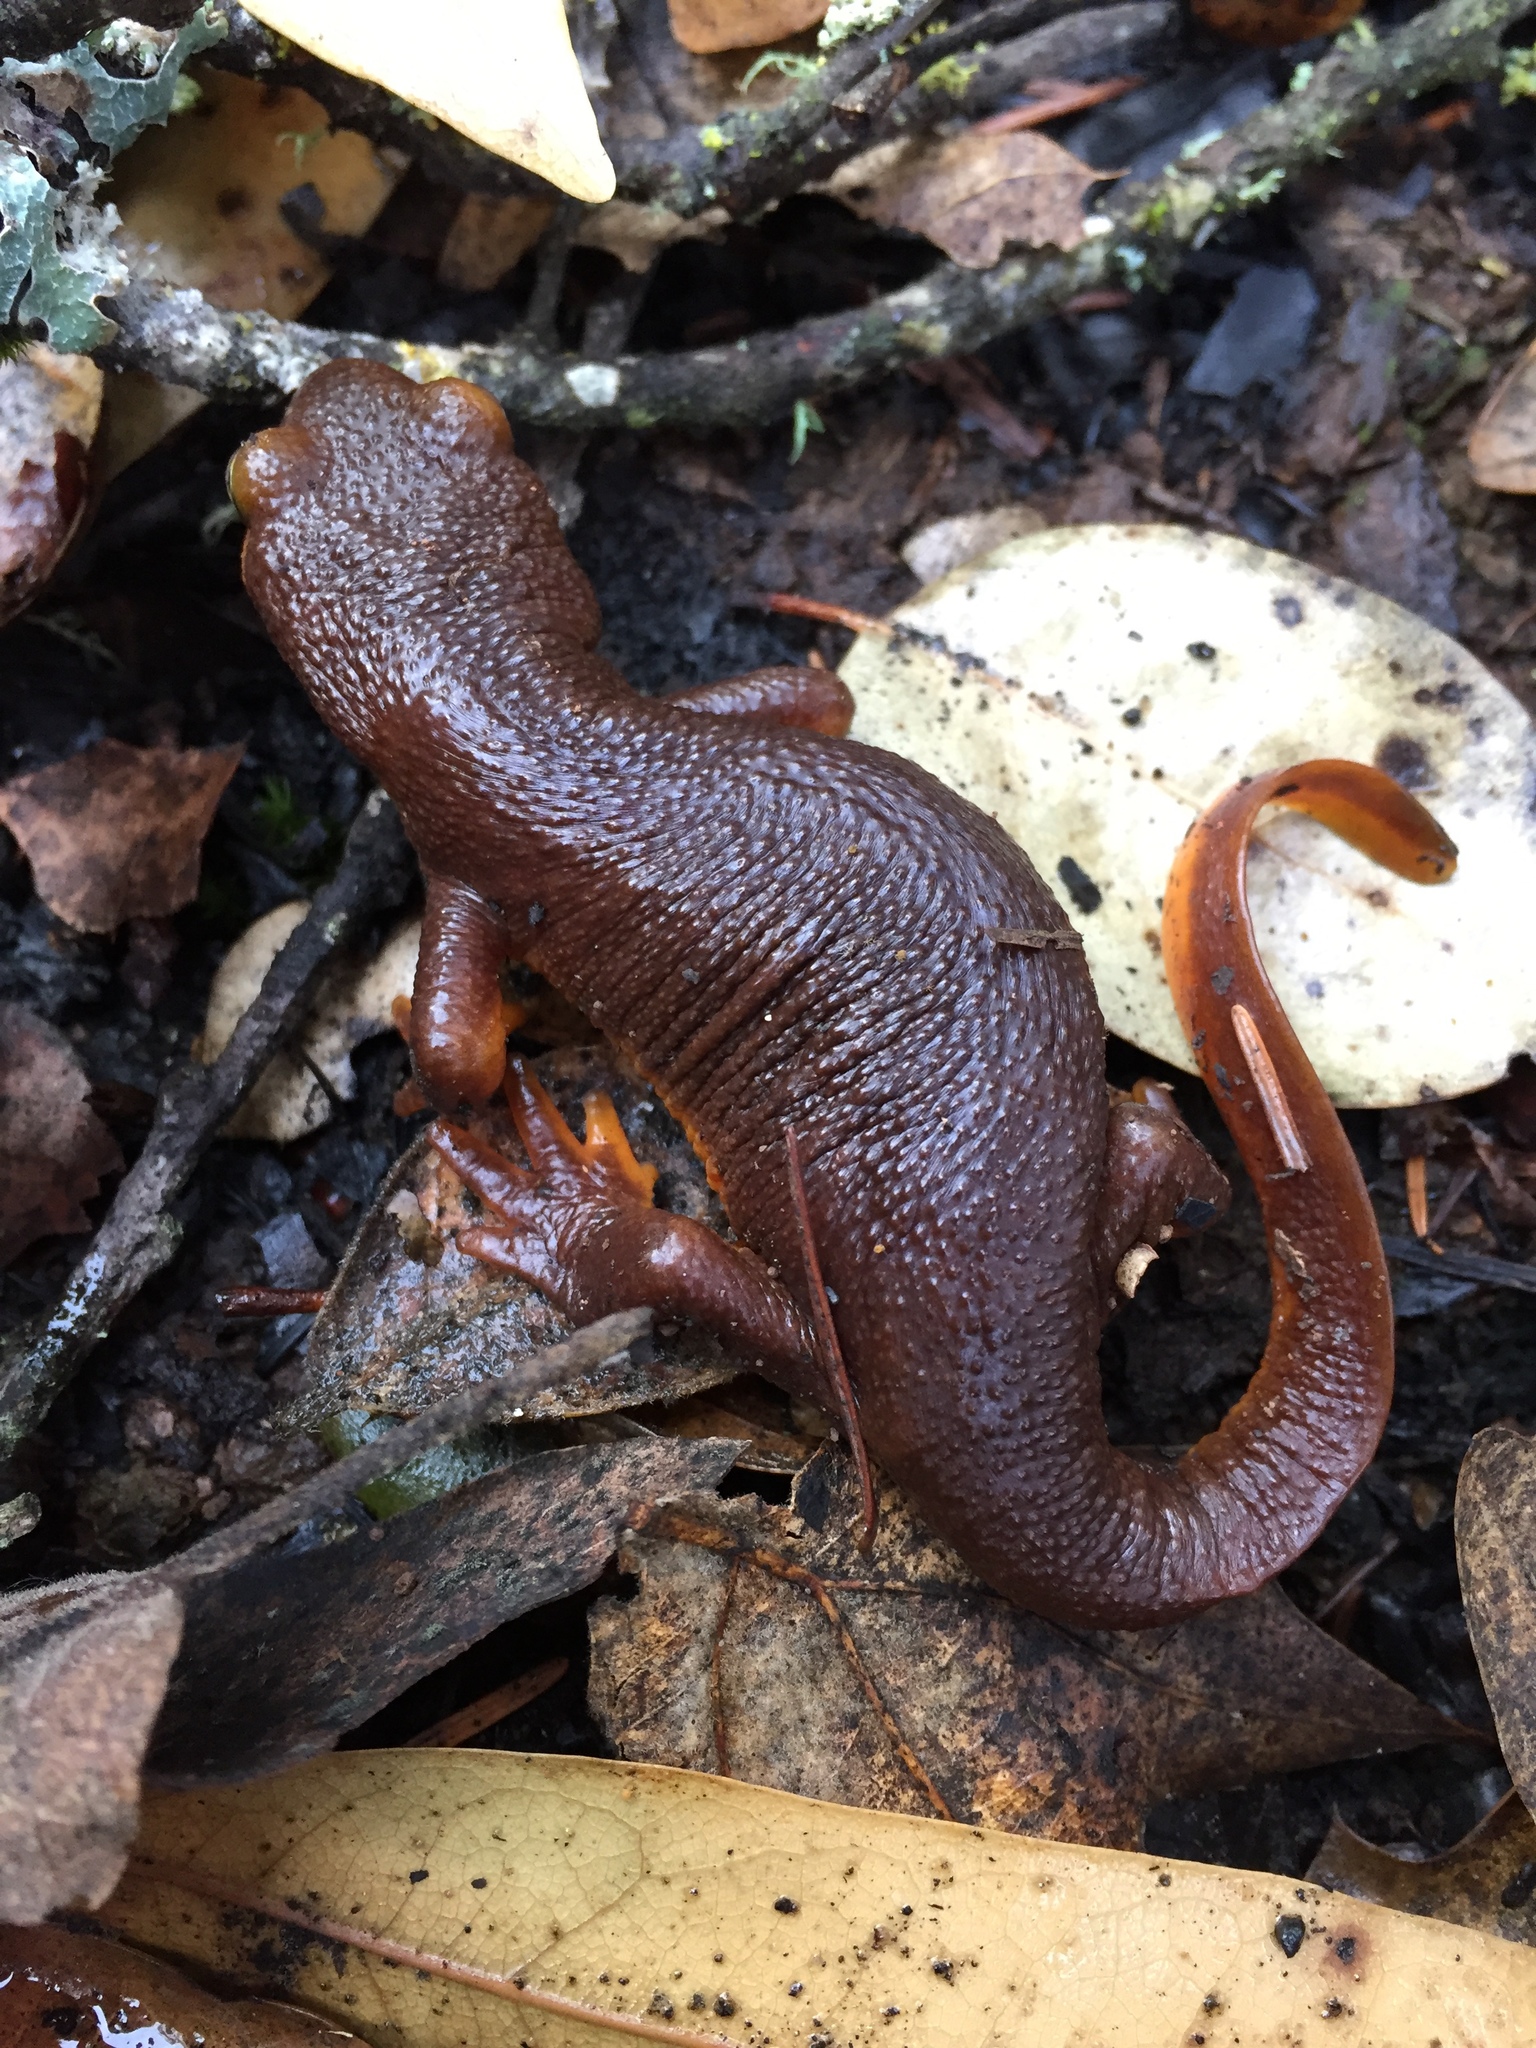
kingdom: Animalia
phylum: Chordata
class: Amphibia
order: Caudata
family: Salamandridae
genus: Taricha
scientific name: Taricha torosa
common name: California newt
